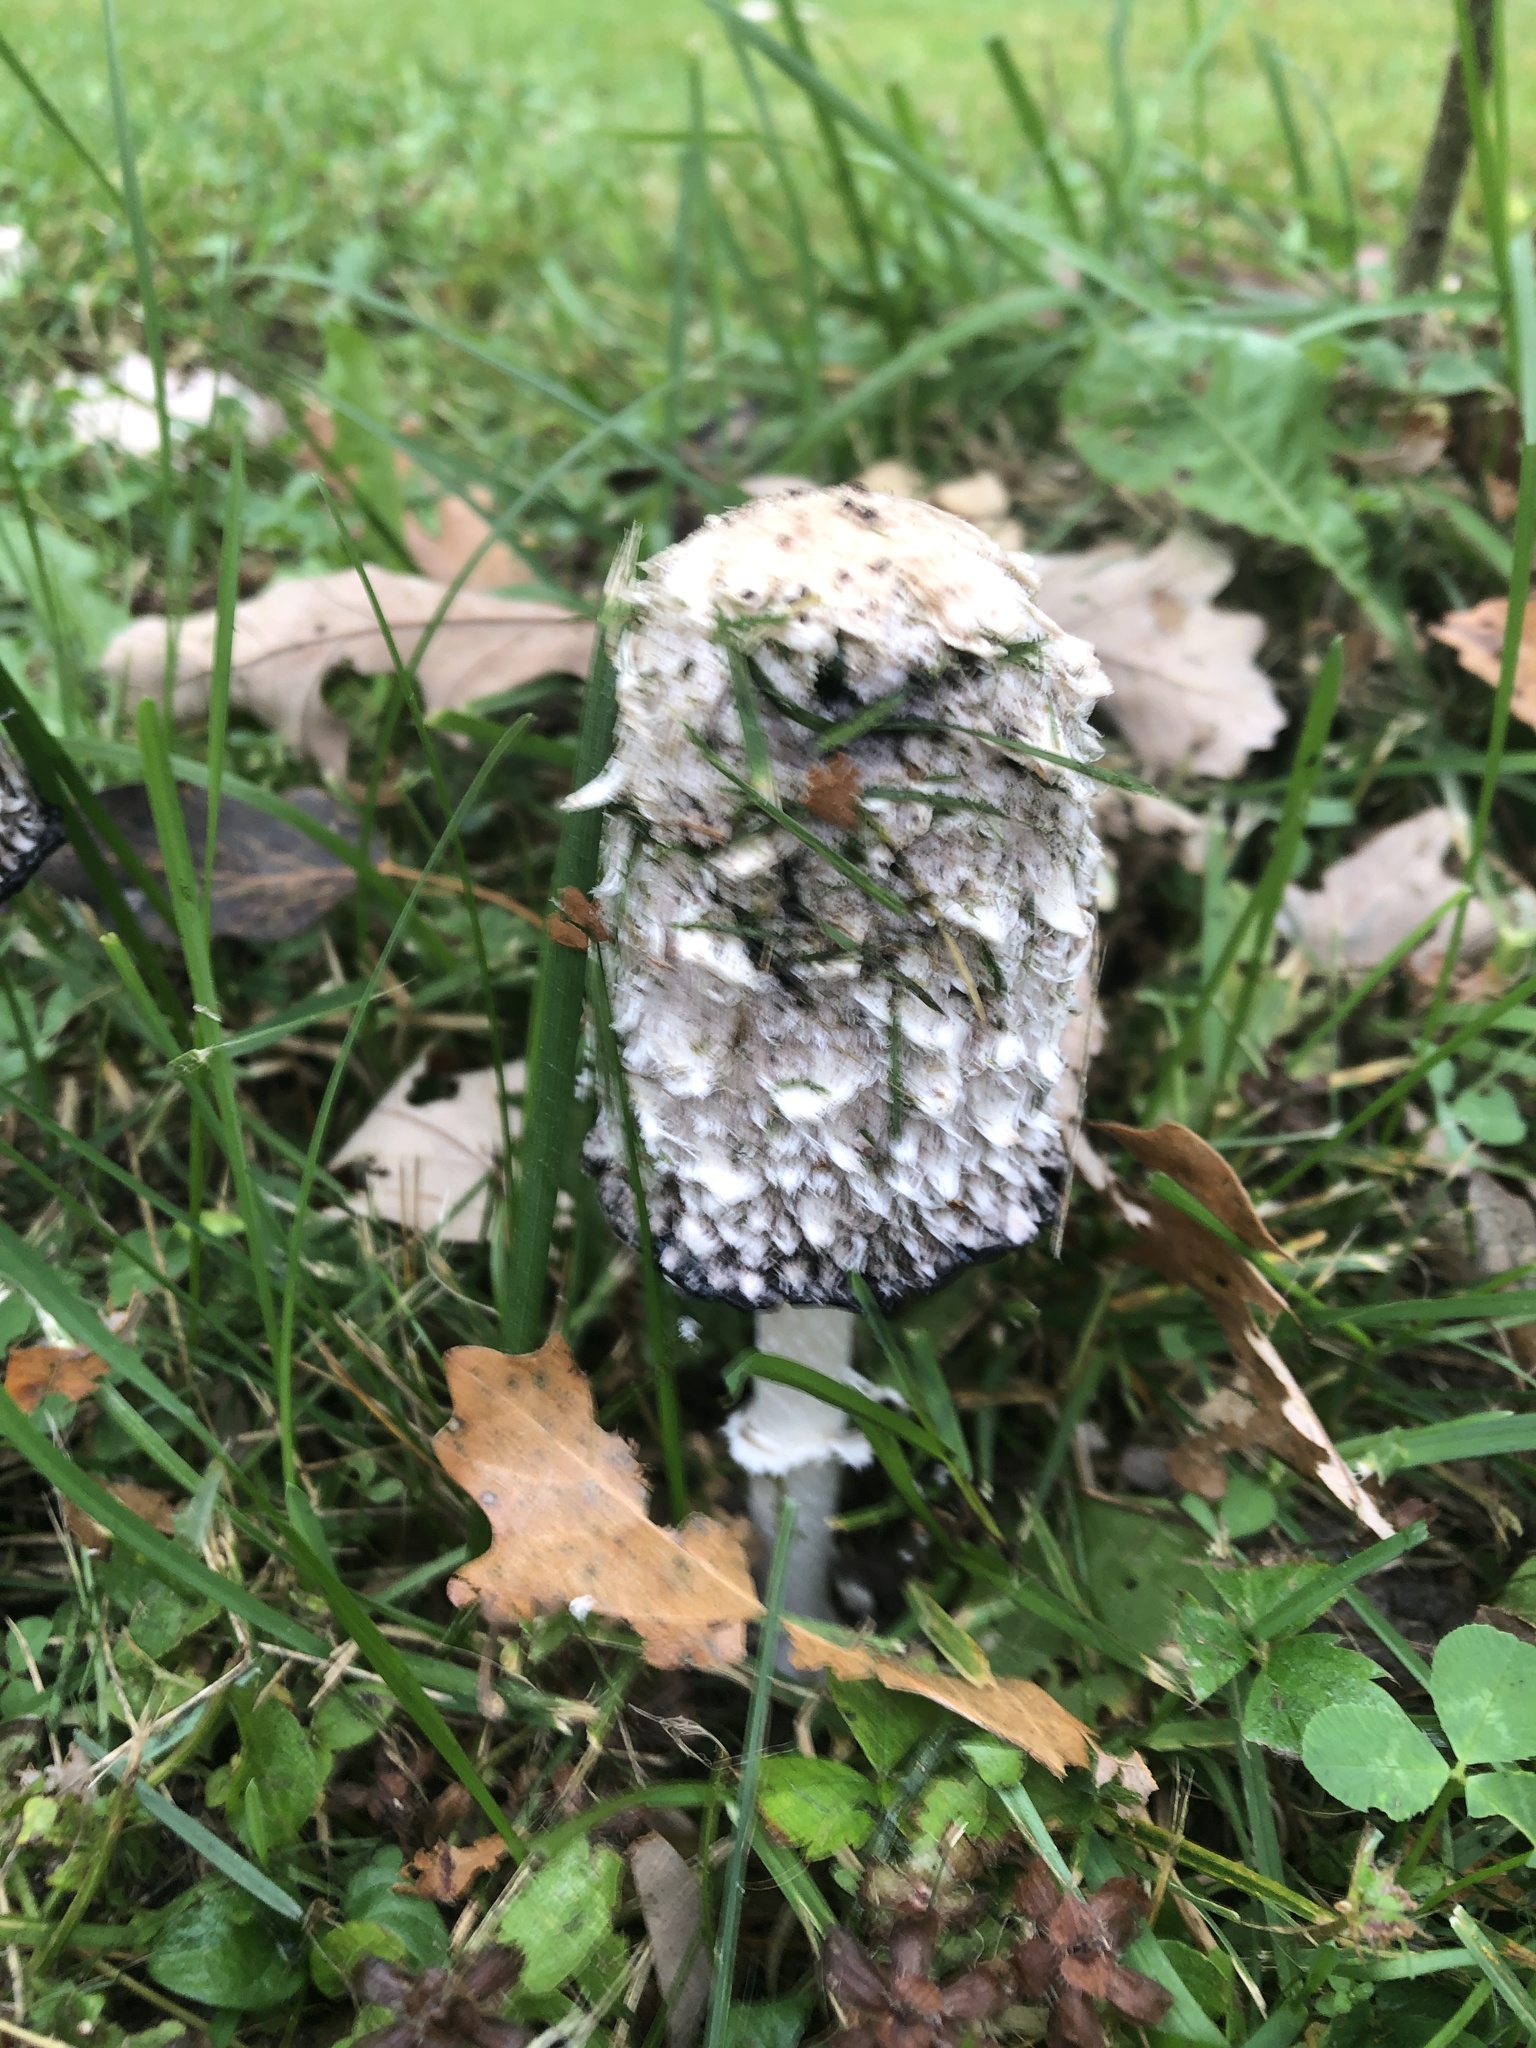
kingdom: Fungi
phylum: Basidiomycota
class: Agaricomycetes
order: Agaricales
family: Agaricaceae
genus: Coprinus
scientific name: Coprinus comatus
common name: Lawyer's wig
